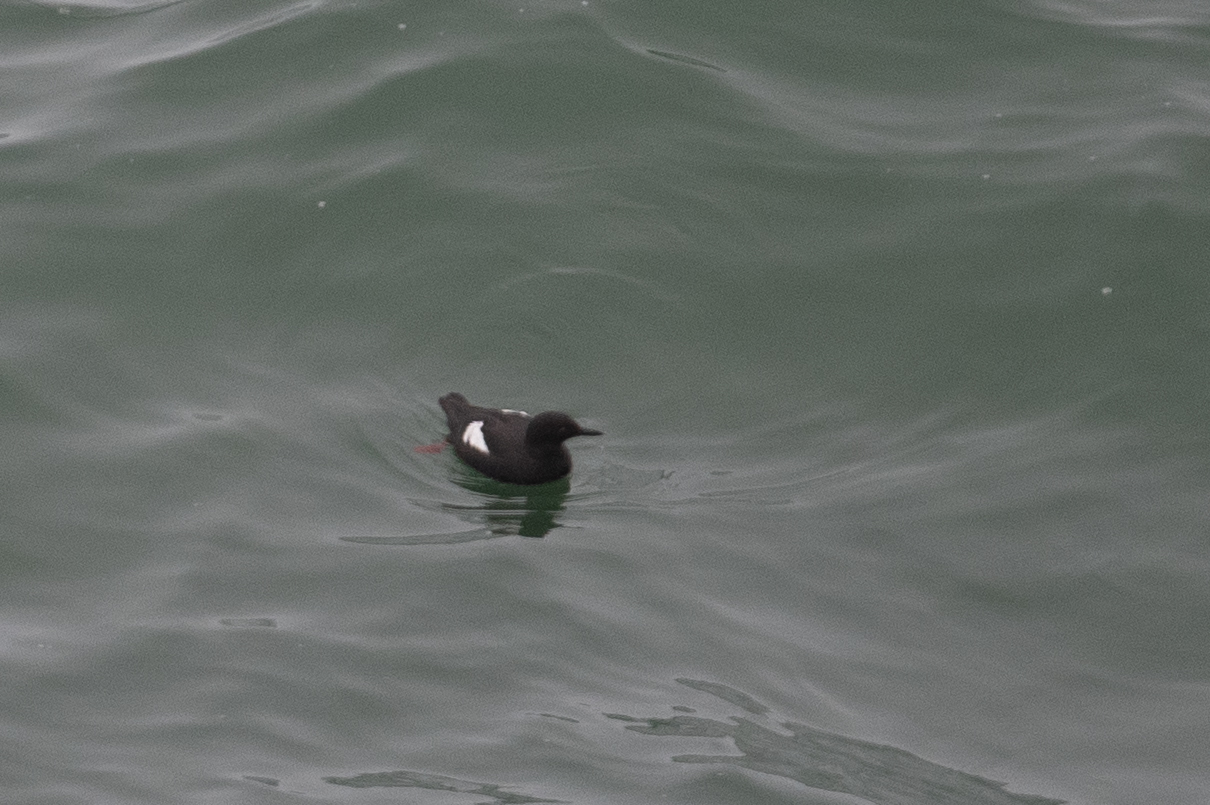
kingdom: Animalia
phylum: Chordata
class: Aves
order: Charadriiformes
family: Alcidae
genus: Cepphus
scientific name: Cepphus columba
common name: Pigeon guillemot
